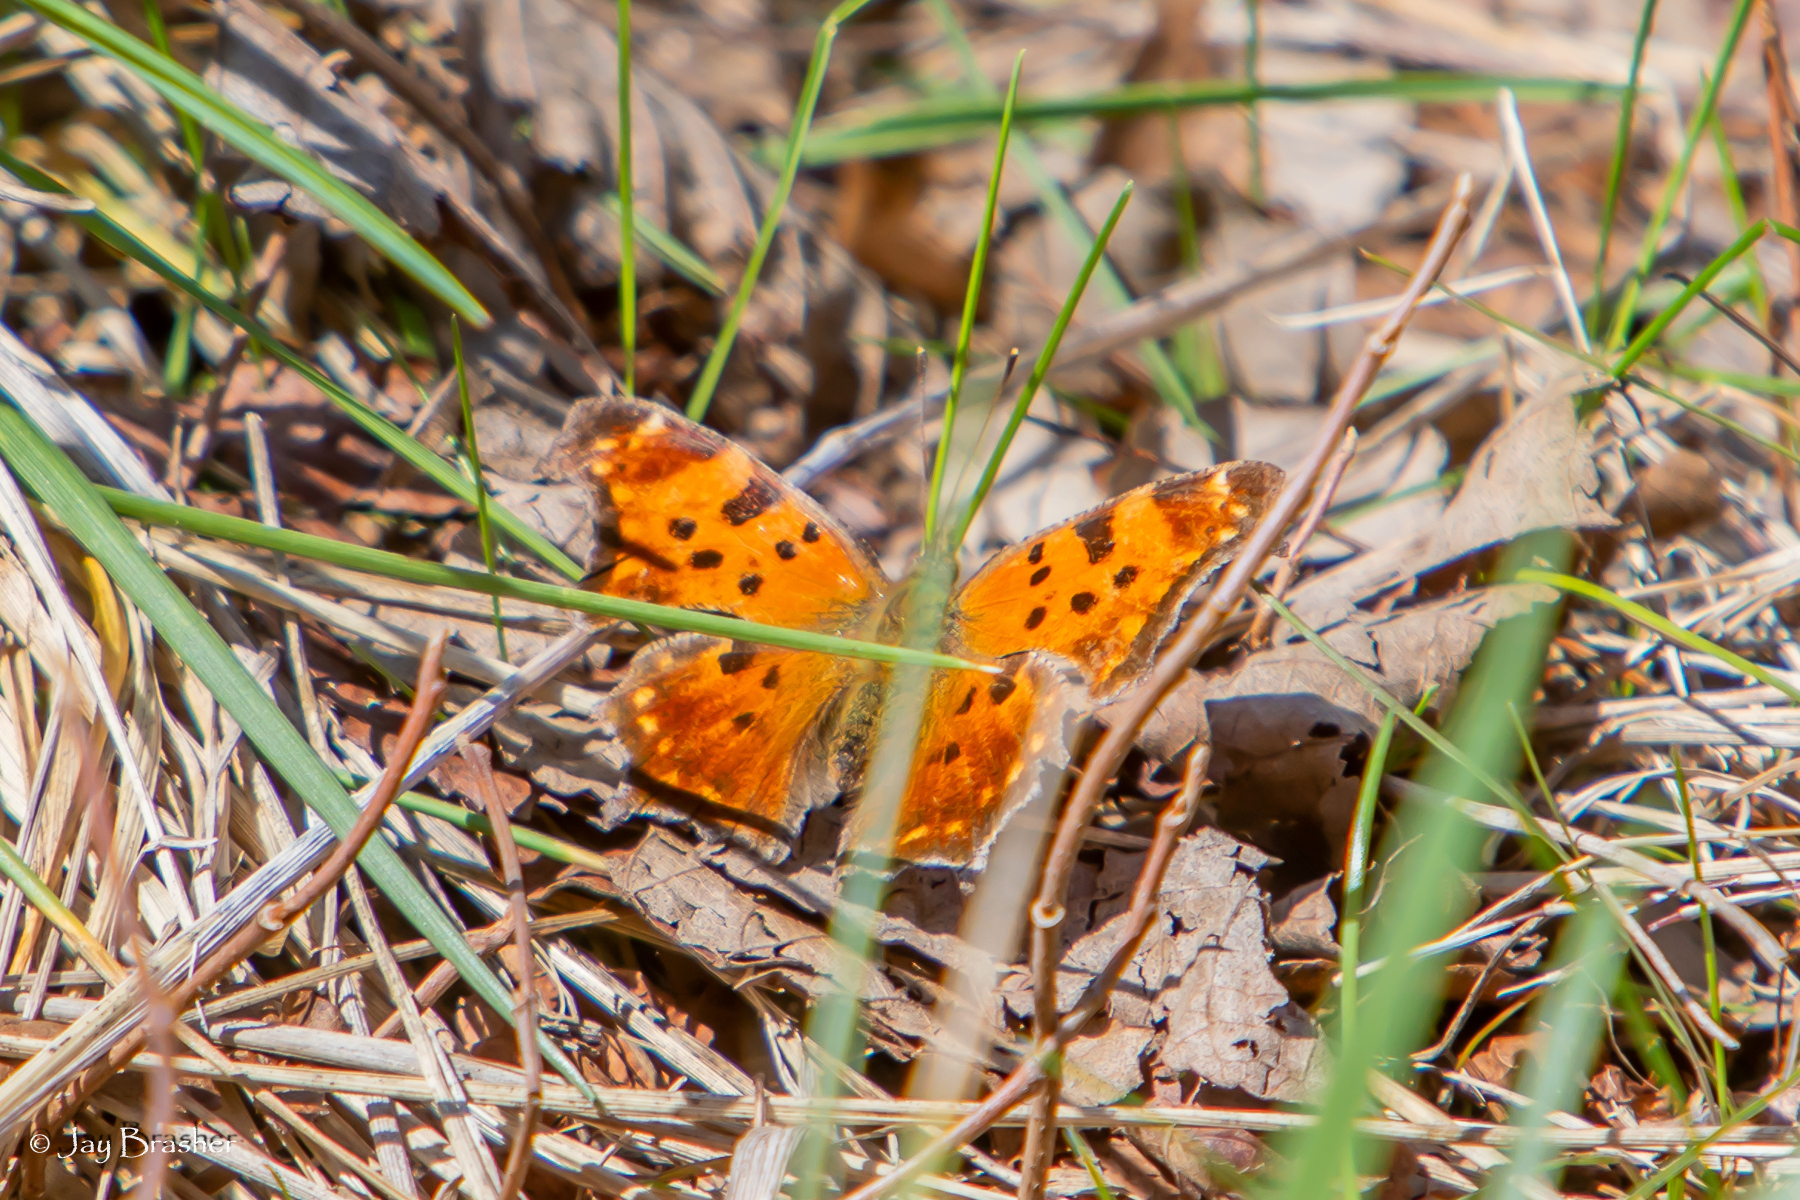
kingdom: Animalia
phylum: Arthropoda
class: Insecta
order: Lepidoptera
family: Nymphalidae
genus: Polygonia
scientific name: Polygonia comma
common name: Eastern comma
